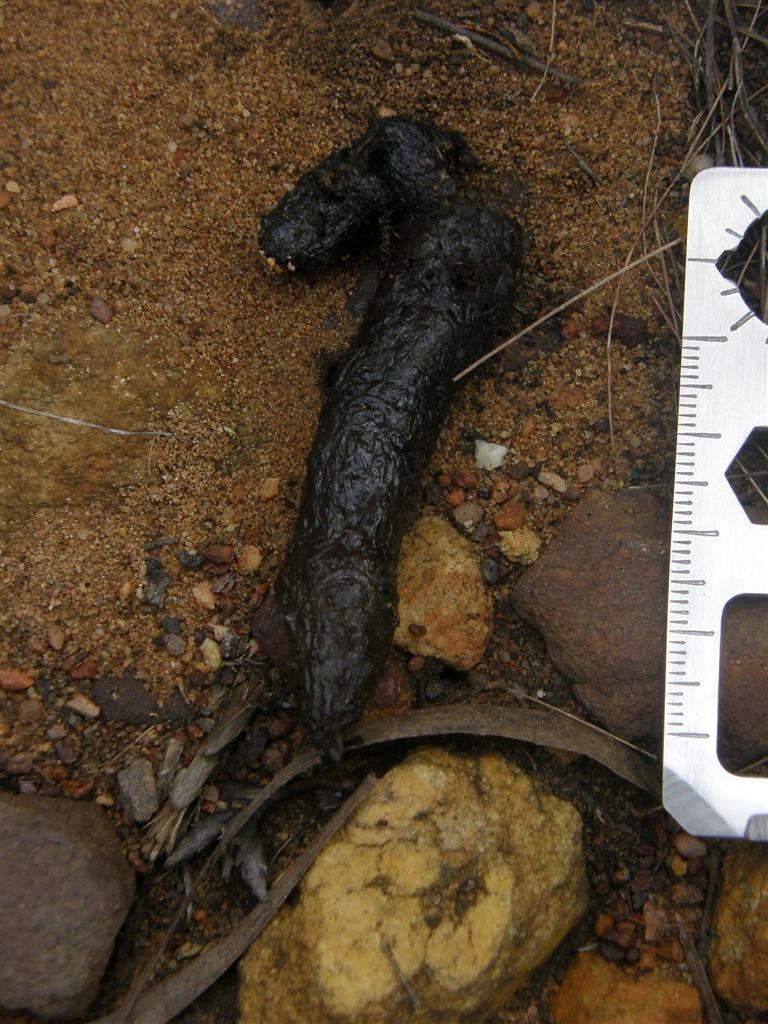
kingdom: Animalia
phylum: Chordata
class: Mammalia
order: Carnivora
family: Felidae
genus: Caracal
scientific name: Caracal caracal
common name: Caracal
